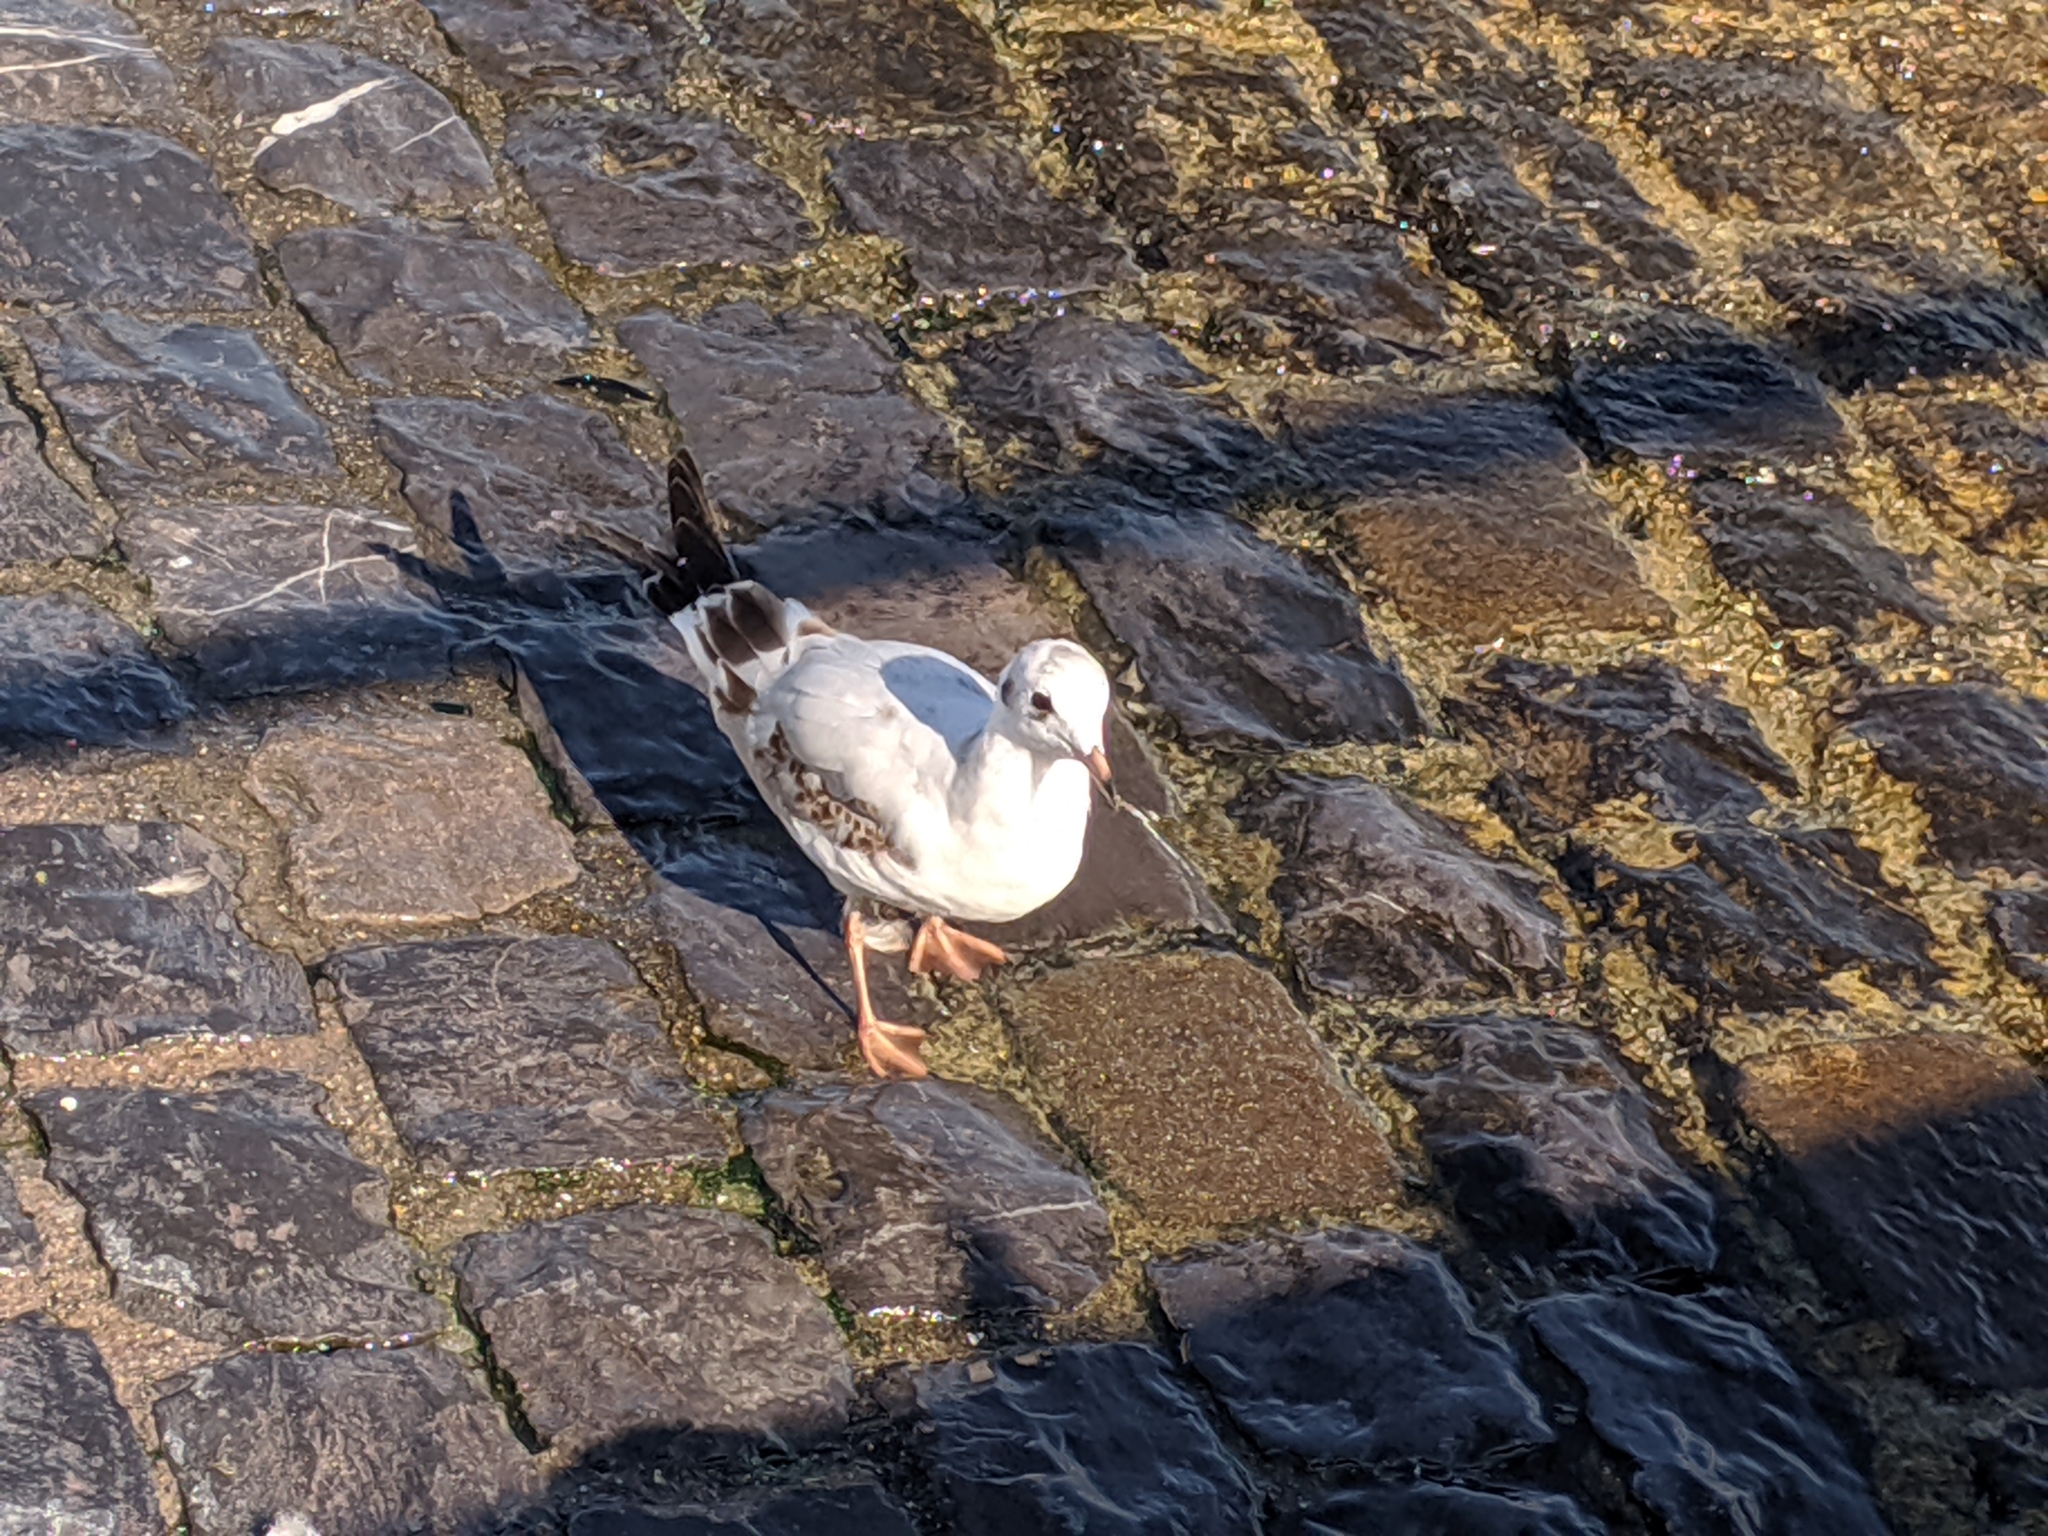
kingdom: Animalia
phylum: Chordata
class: Aves
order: Charadriiformes
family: Laridae
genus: Chroicocephalus
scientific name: Chroicocephalus ridibundus
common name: Black-headed gull
